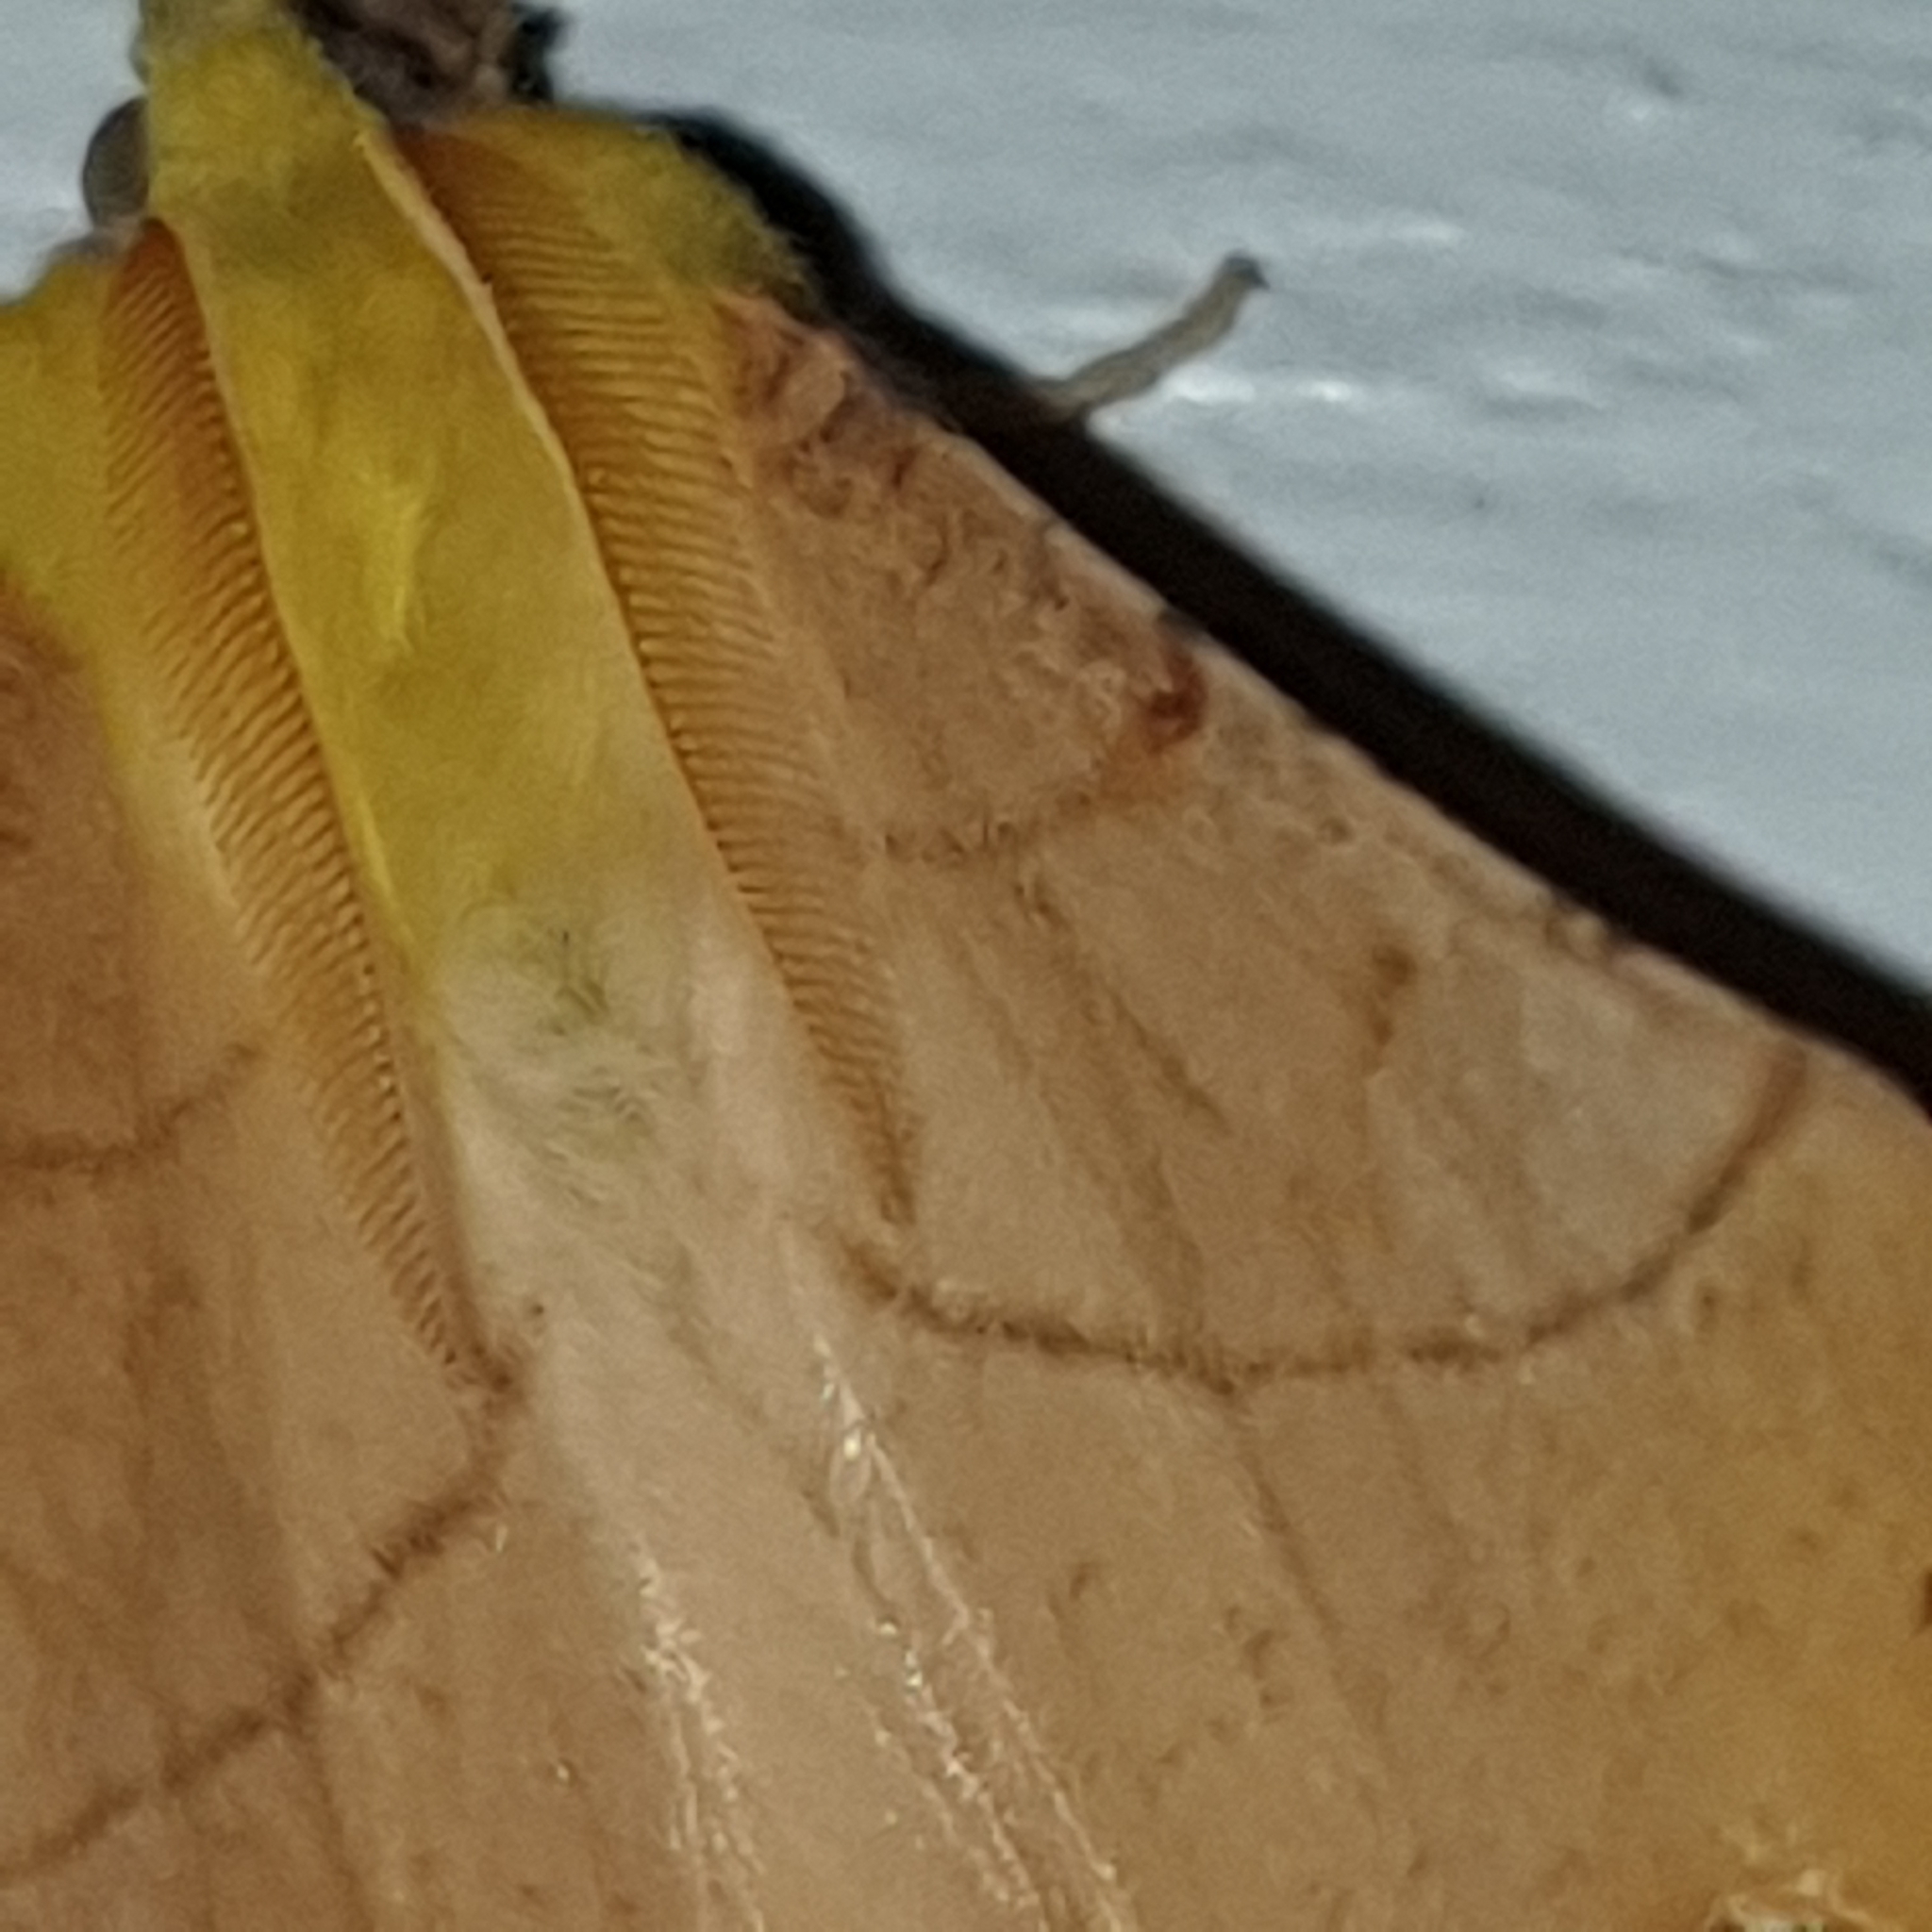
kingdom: Animalia
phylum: Arthropoda
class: Insecta
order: Lepidoptera
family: Geometridae
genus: Ennomos
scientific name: Ennomos alniaria
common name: Canary-shouldered thorn
